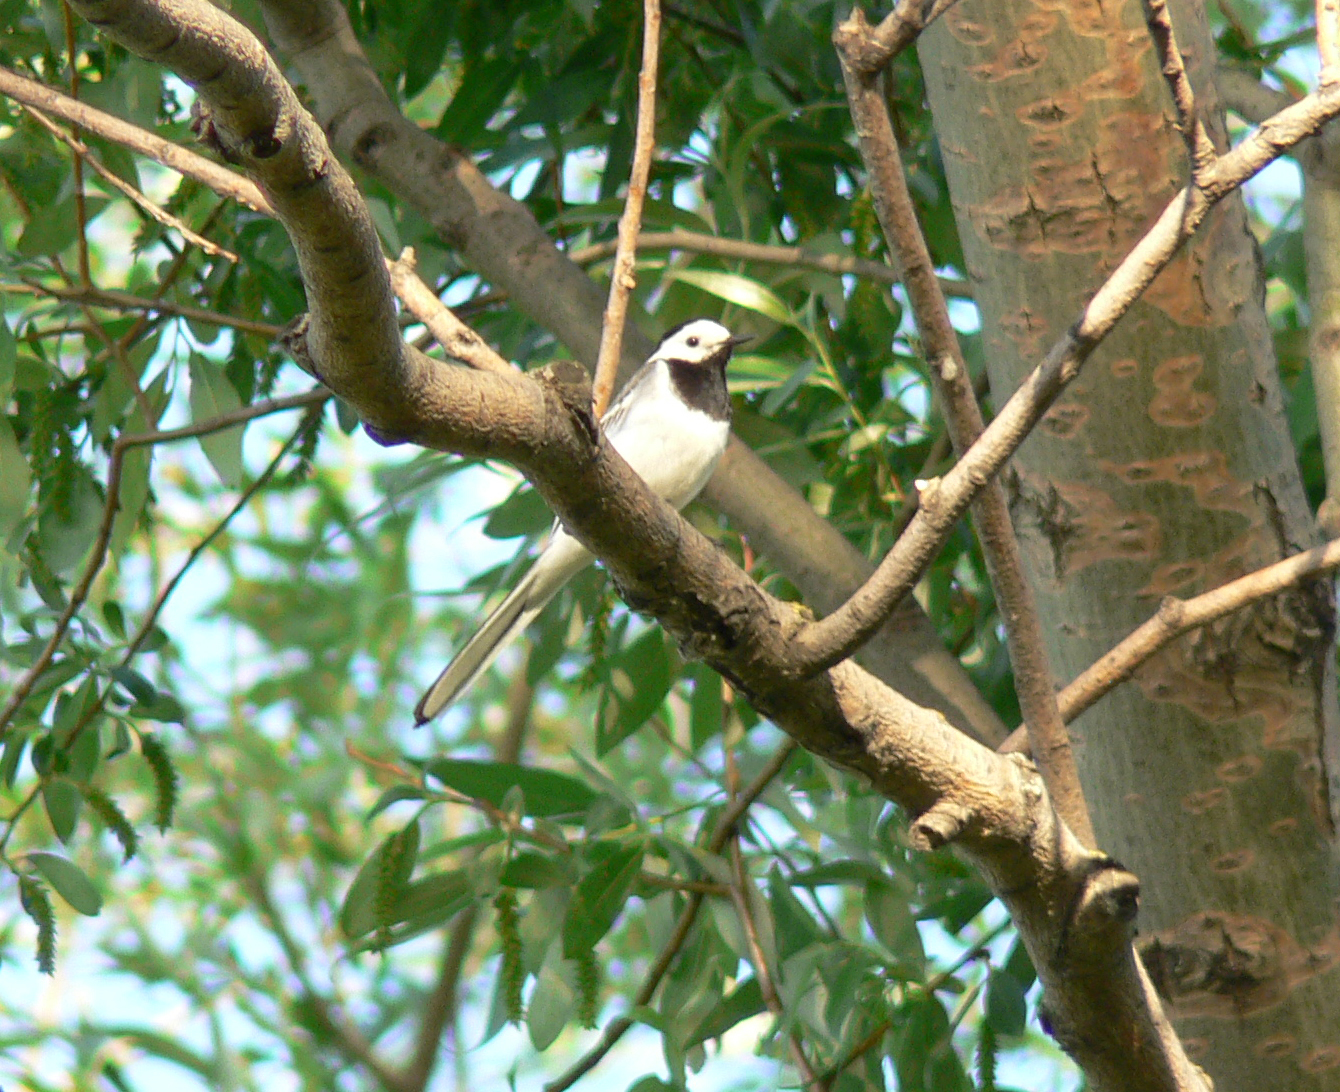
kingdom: Animalia
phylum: Chordata
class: Aves
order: Passeriformes
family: Motacillidae
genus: Motacilla
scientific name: Motacilla alba
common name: White wagtail
